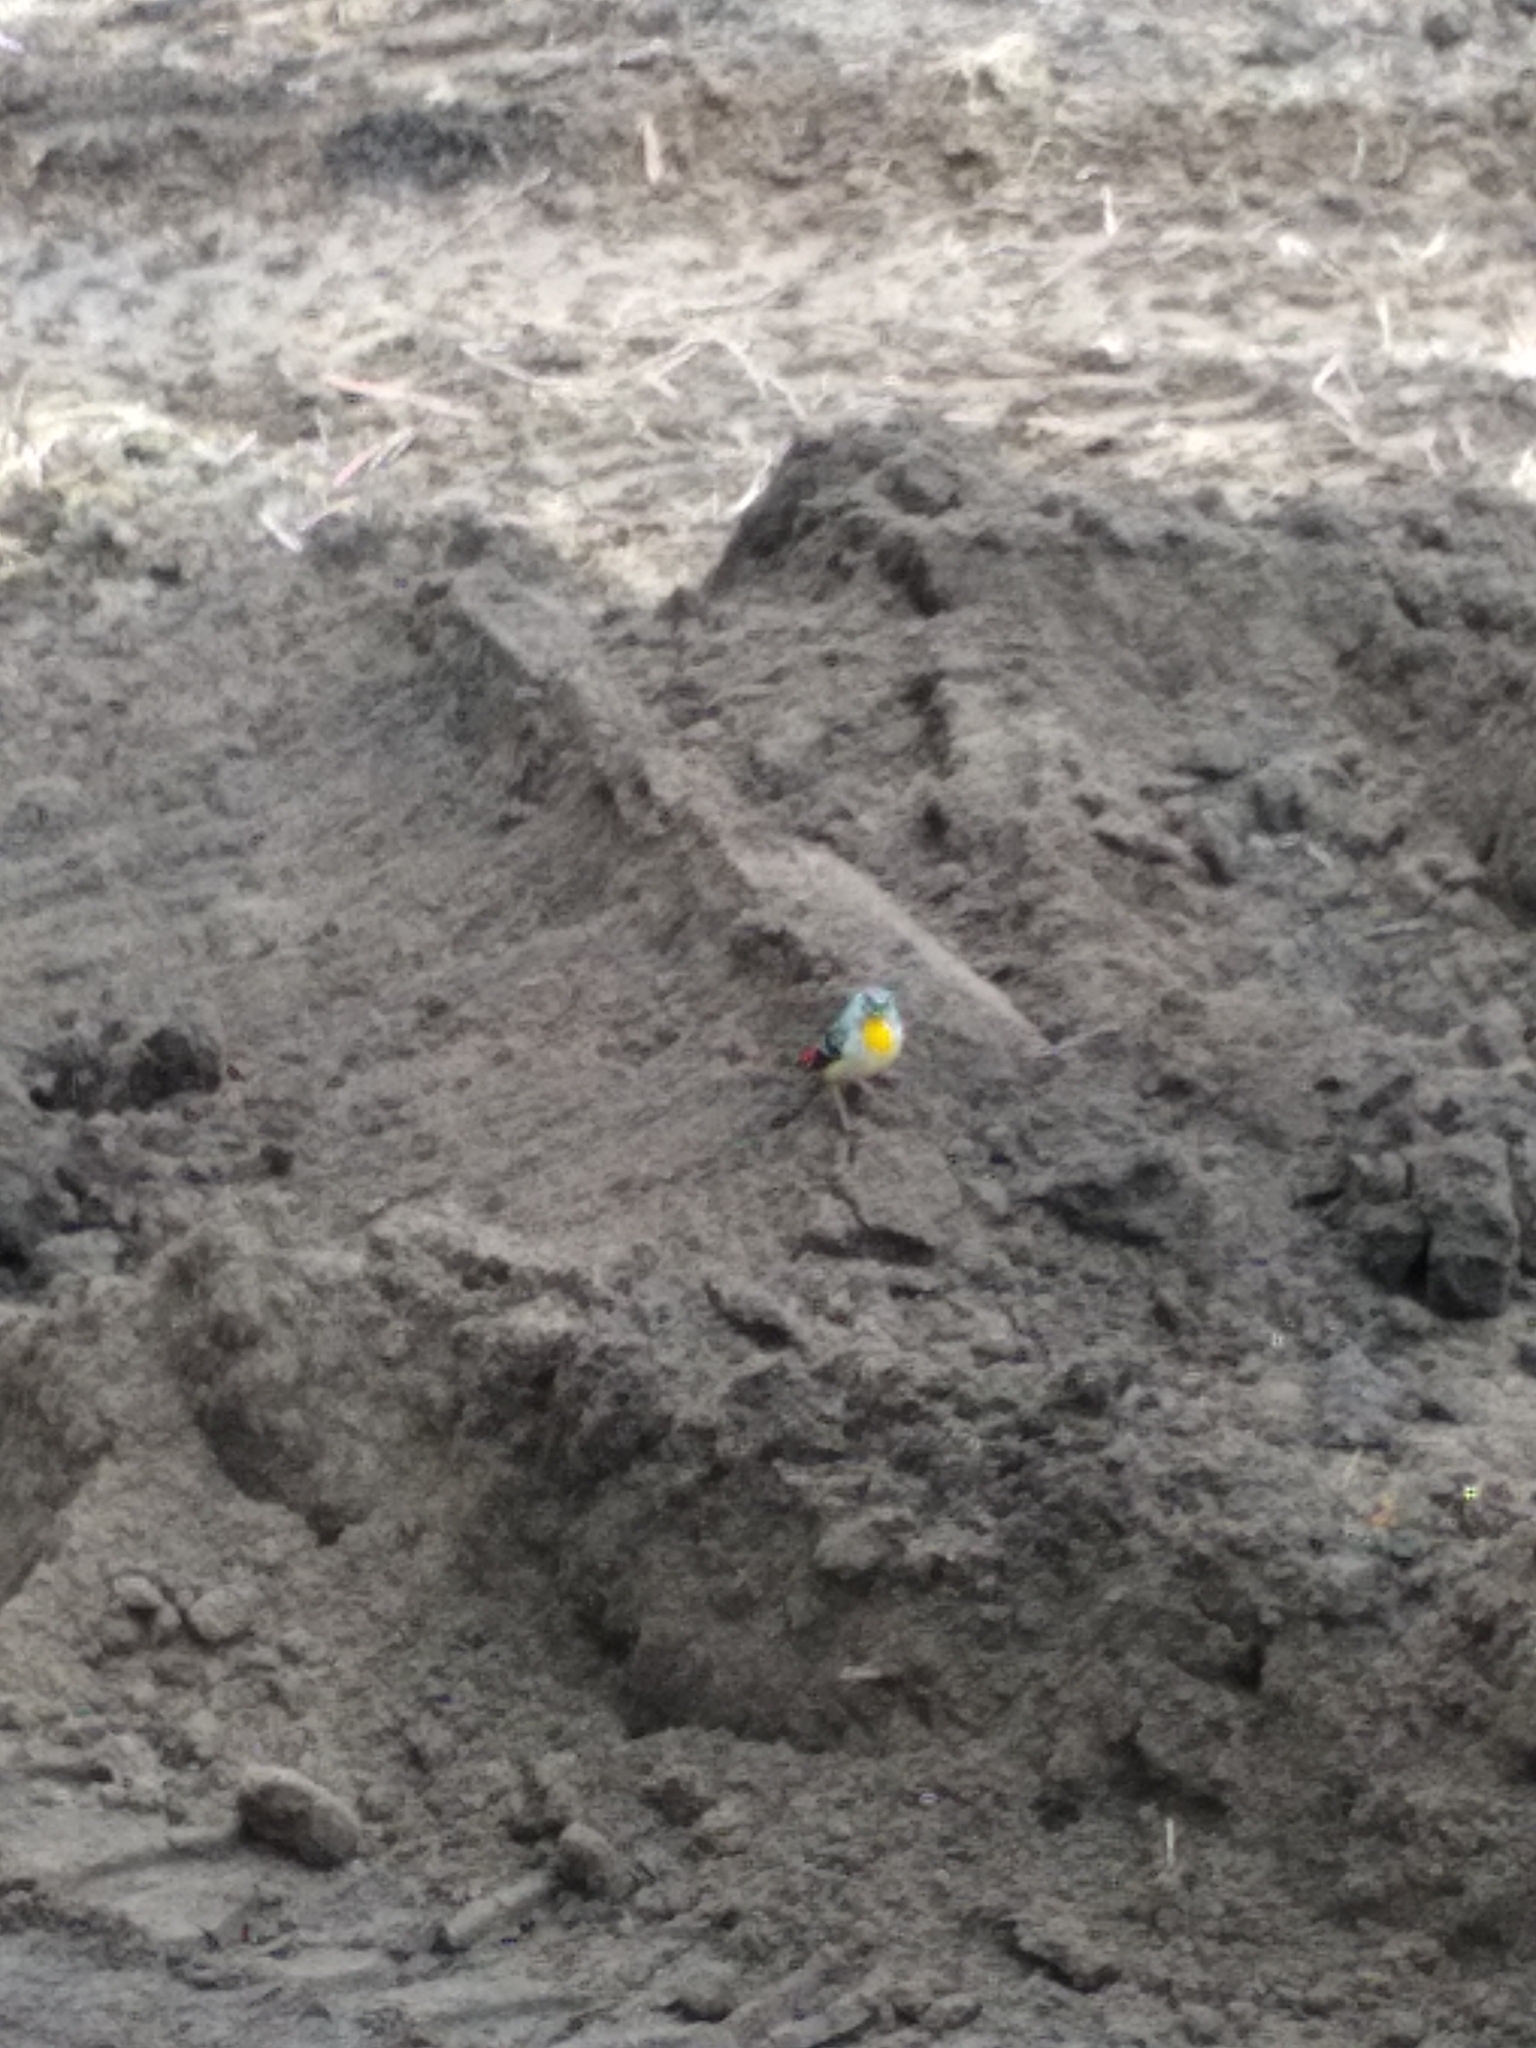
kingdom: Animalia
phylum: Chordata
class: Aves
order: Passeriformes
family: Pardalotidae
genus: Pardalotus
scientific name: Pardalotus punctatus
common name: Spotted pardalote
